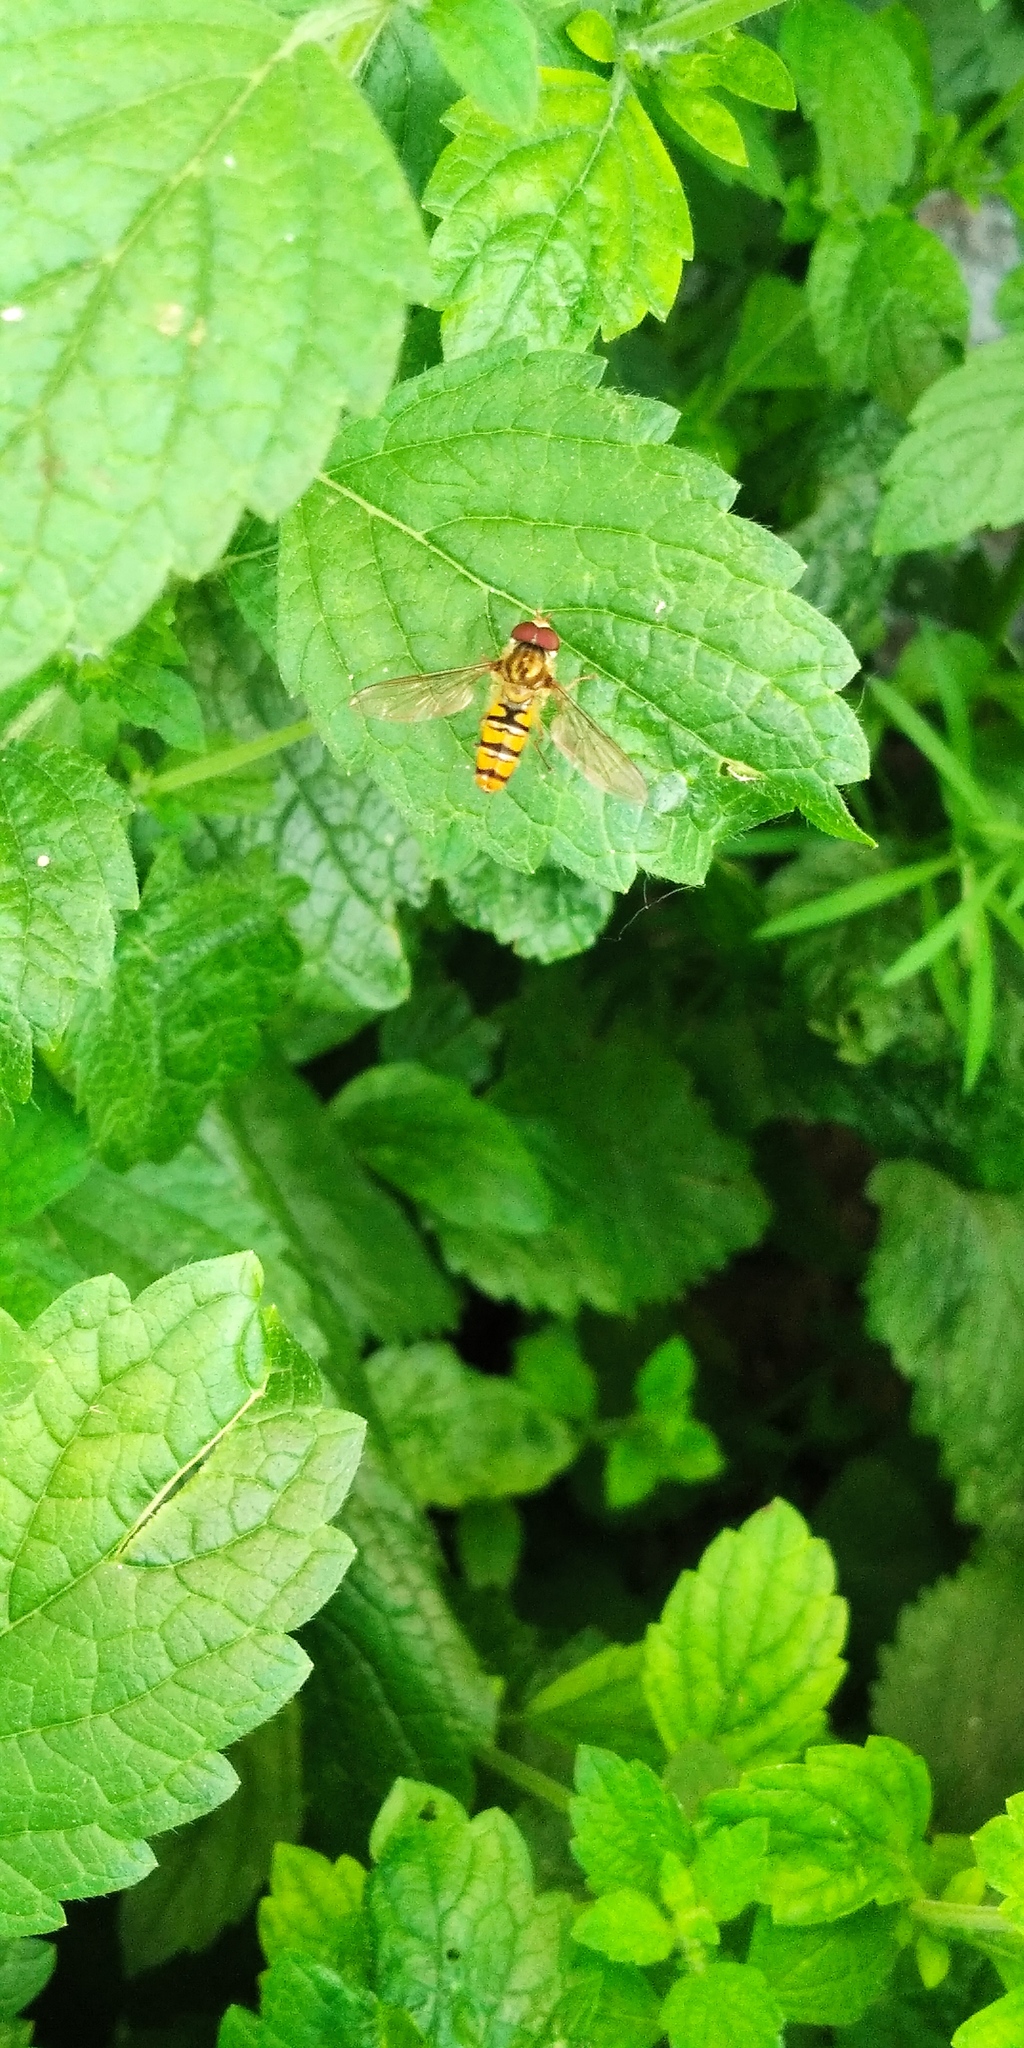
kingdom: Animalia
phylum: Arthropoda
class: Insecta
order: Diptera
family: Syrphidae
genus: Episyrphus
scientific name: Episyrphus balteatus
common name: Marmalade hoverfly
